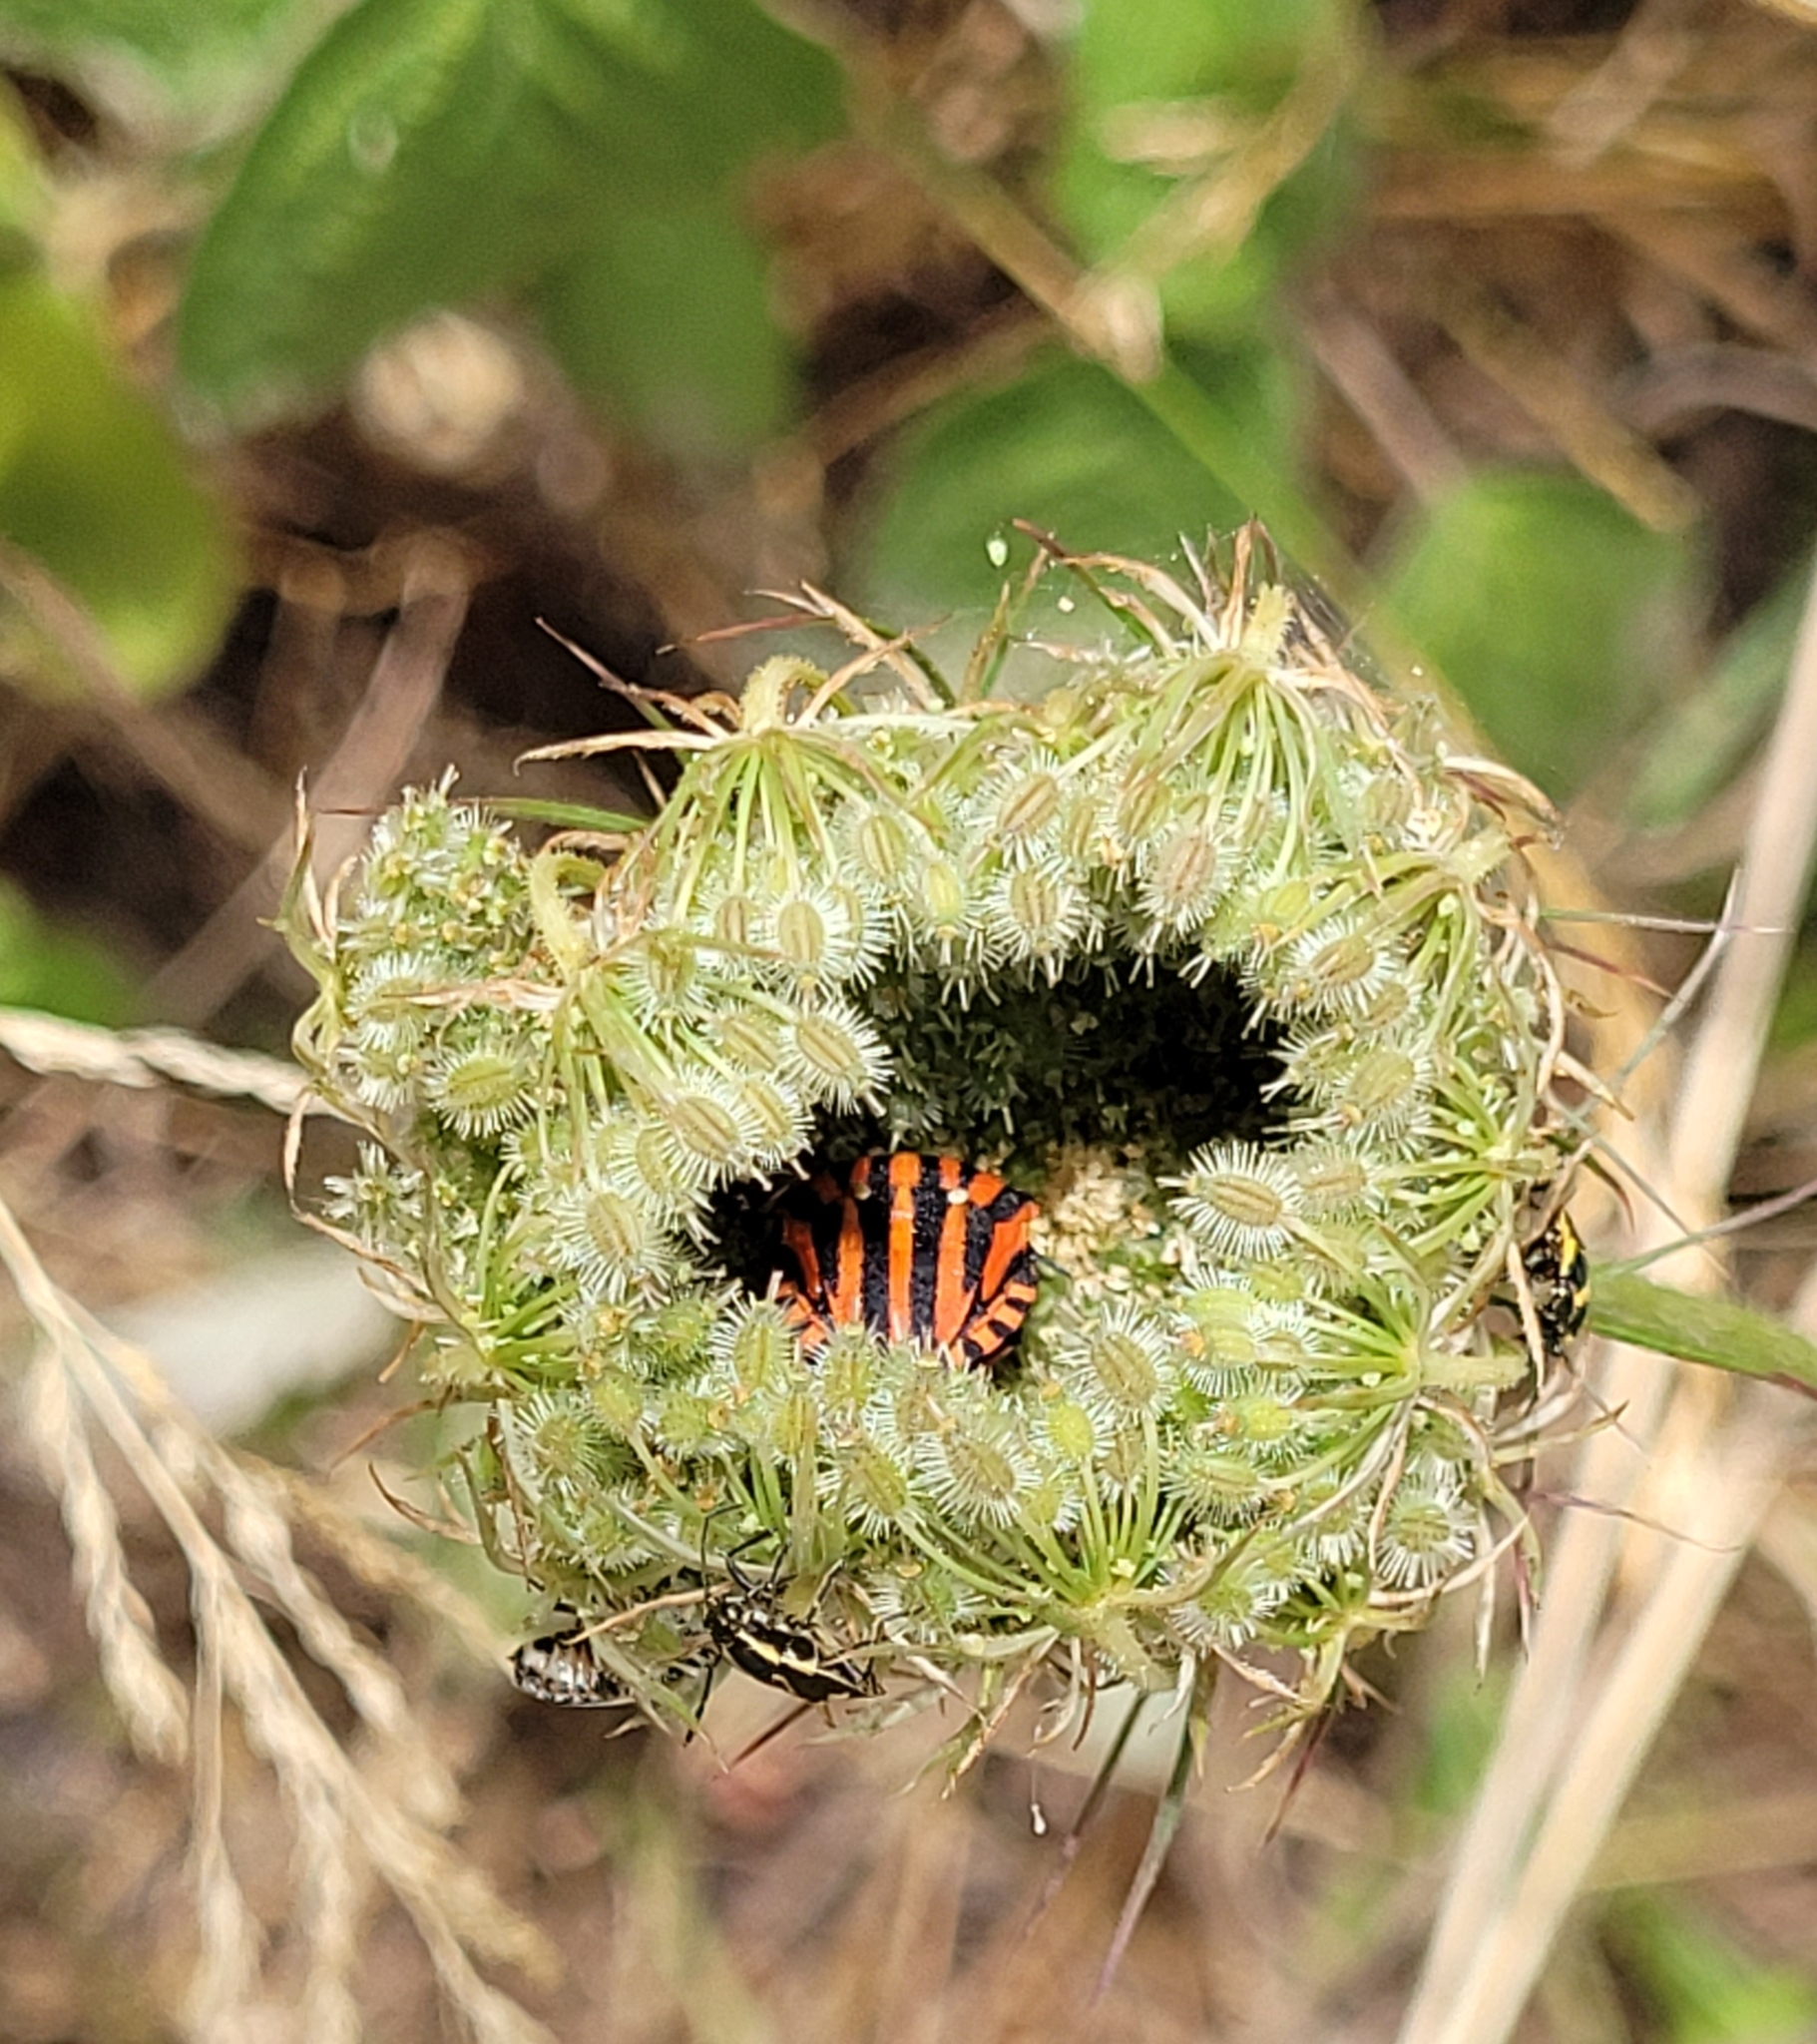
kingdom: Animalia
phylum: Arthropoda
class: Insecta
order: Hemiptera
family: Pentatomidae
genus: Graphosoma
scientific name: Graphosoma italicum
